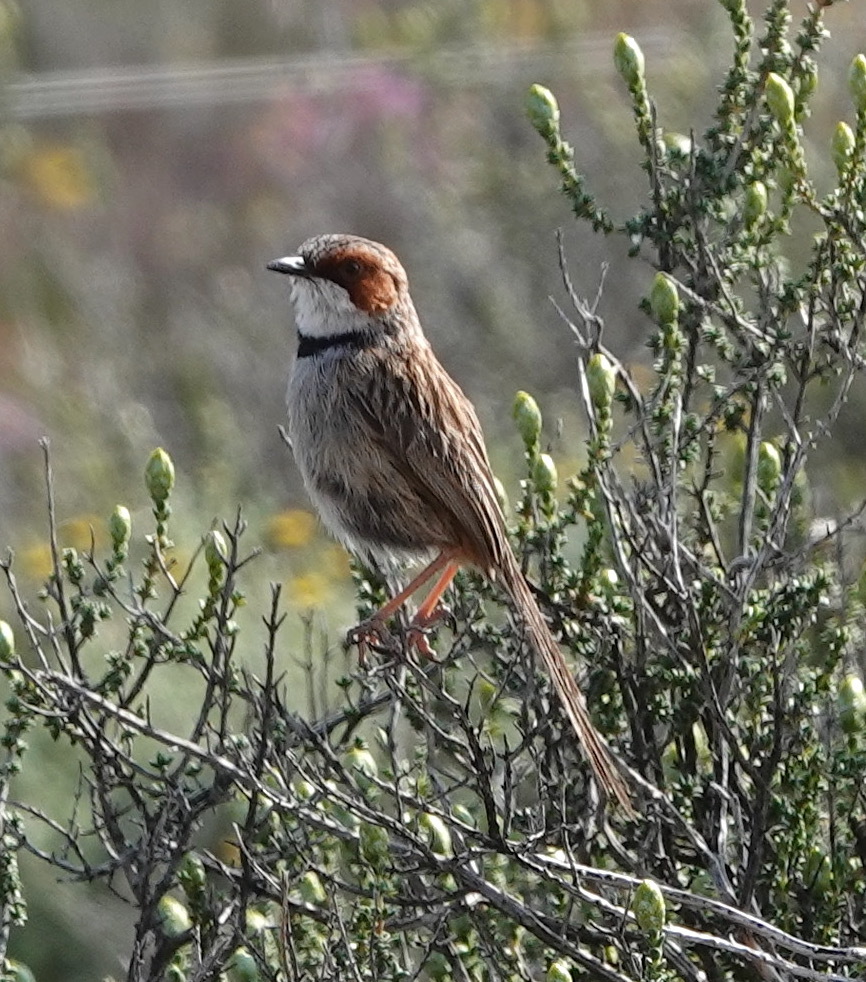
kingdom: Animalia
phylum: Chordata
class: Aves
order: Passeriformes
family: Cisticolidae
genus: Malcorus
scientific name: Malcorus pectoralis
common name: Rufous-eared warbler
